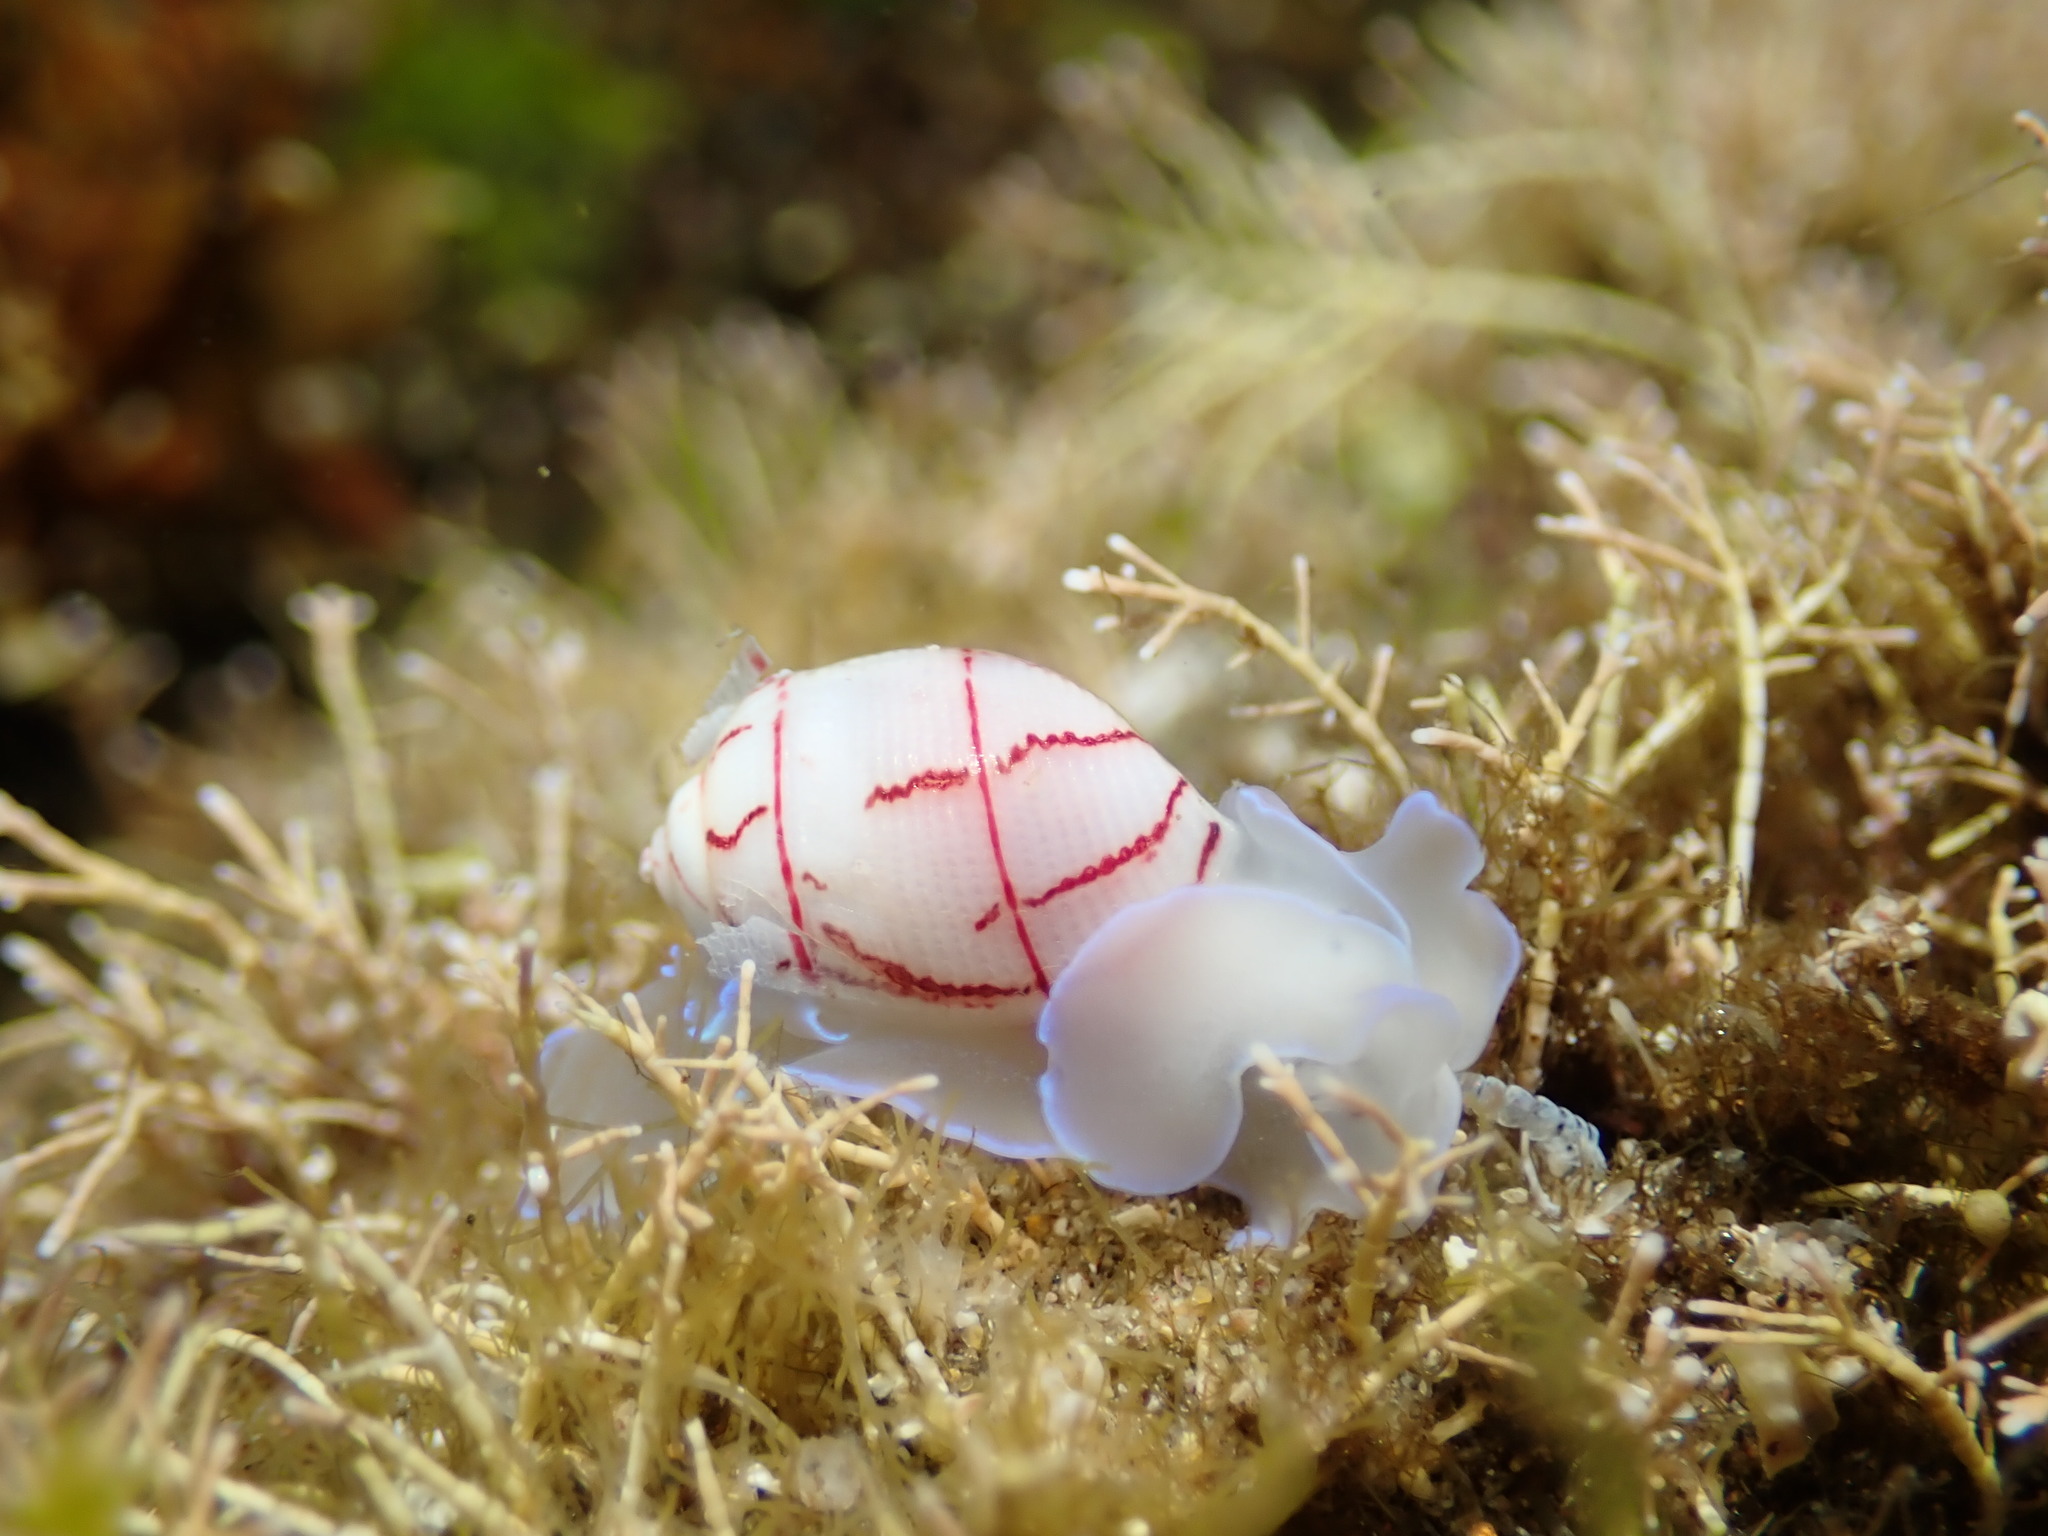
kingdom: Animalia
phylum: Mollusca
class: Gastropoda
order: Cephalaspidea
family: Aplustridae
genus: Bullina
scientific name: Bullina lineata
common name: Lined bubble snail
